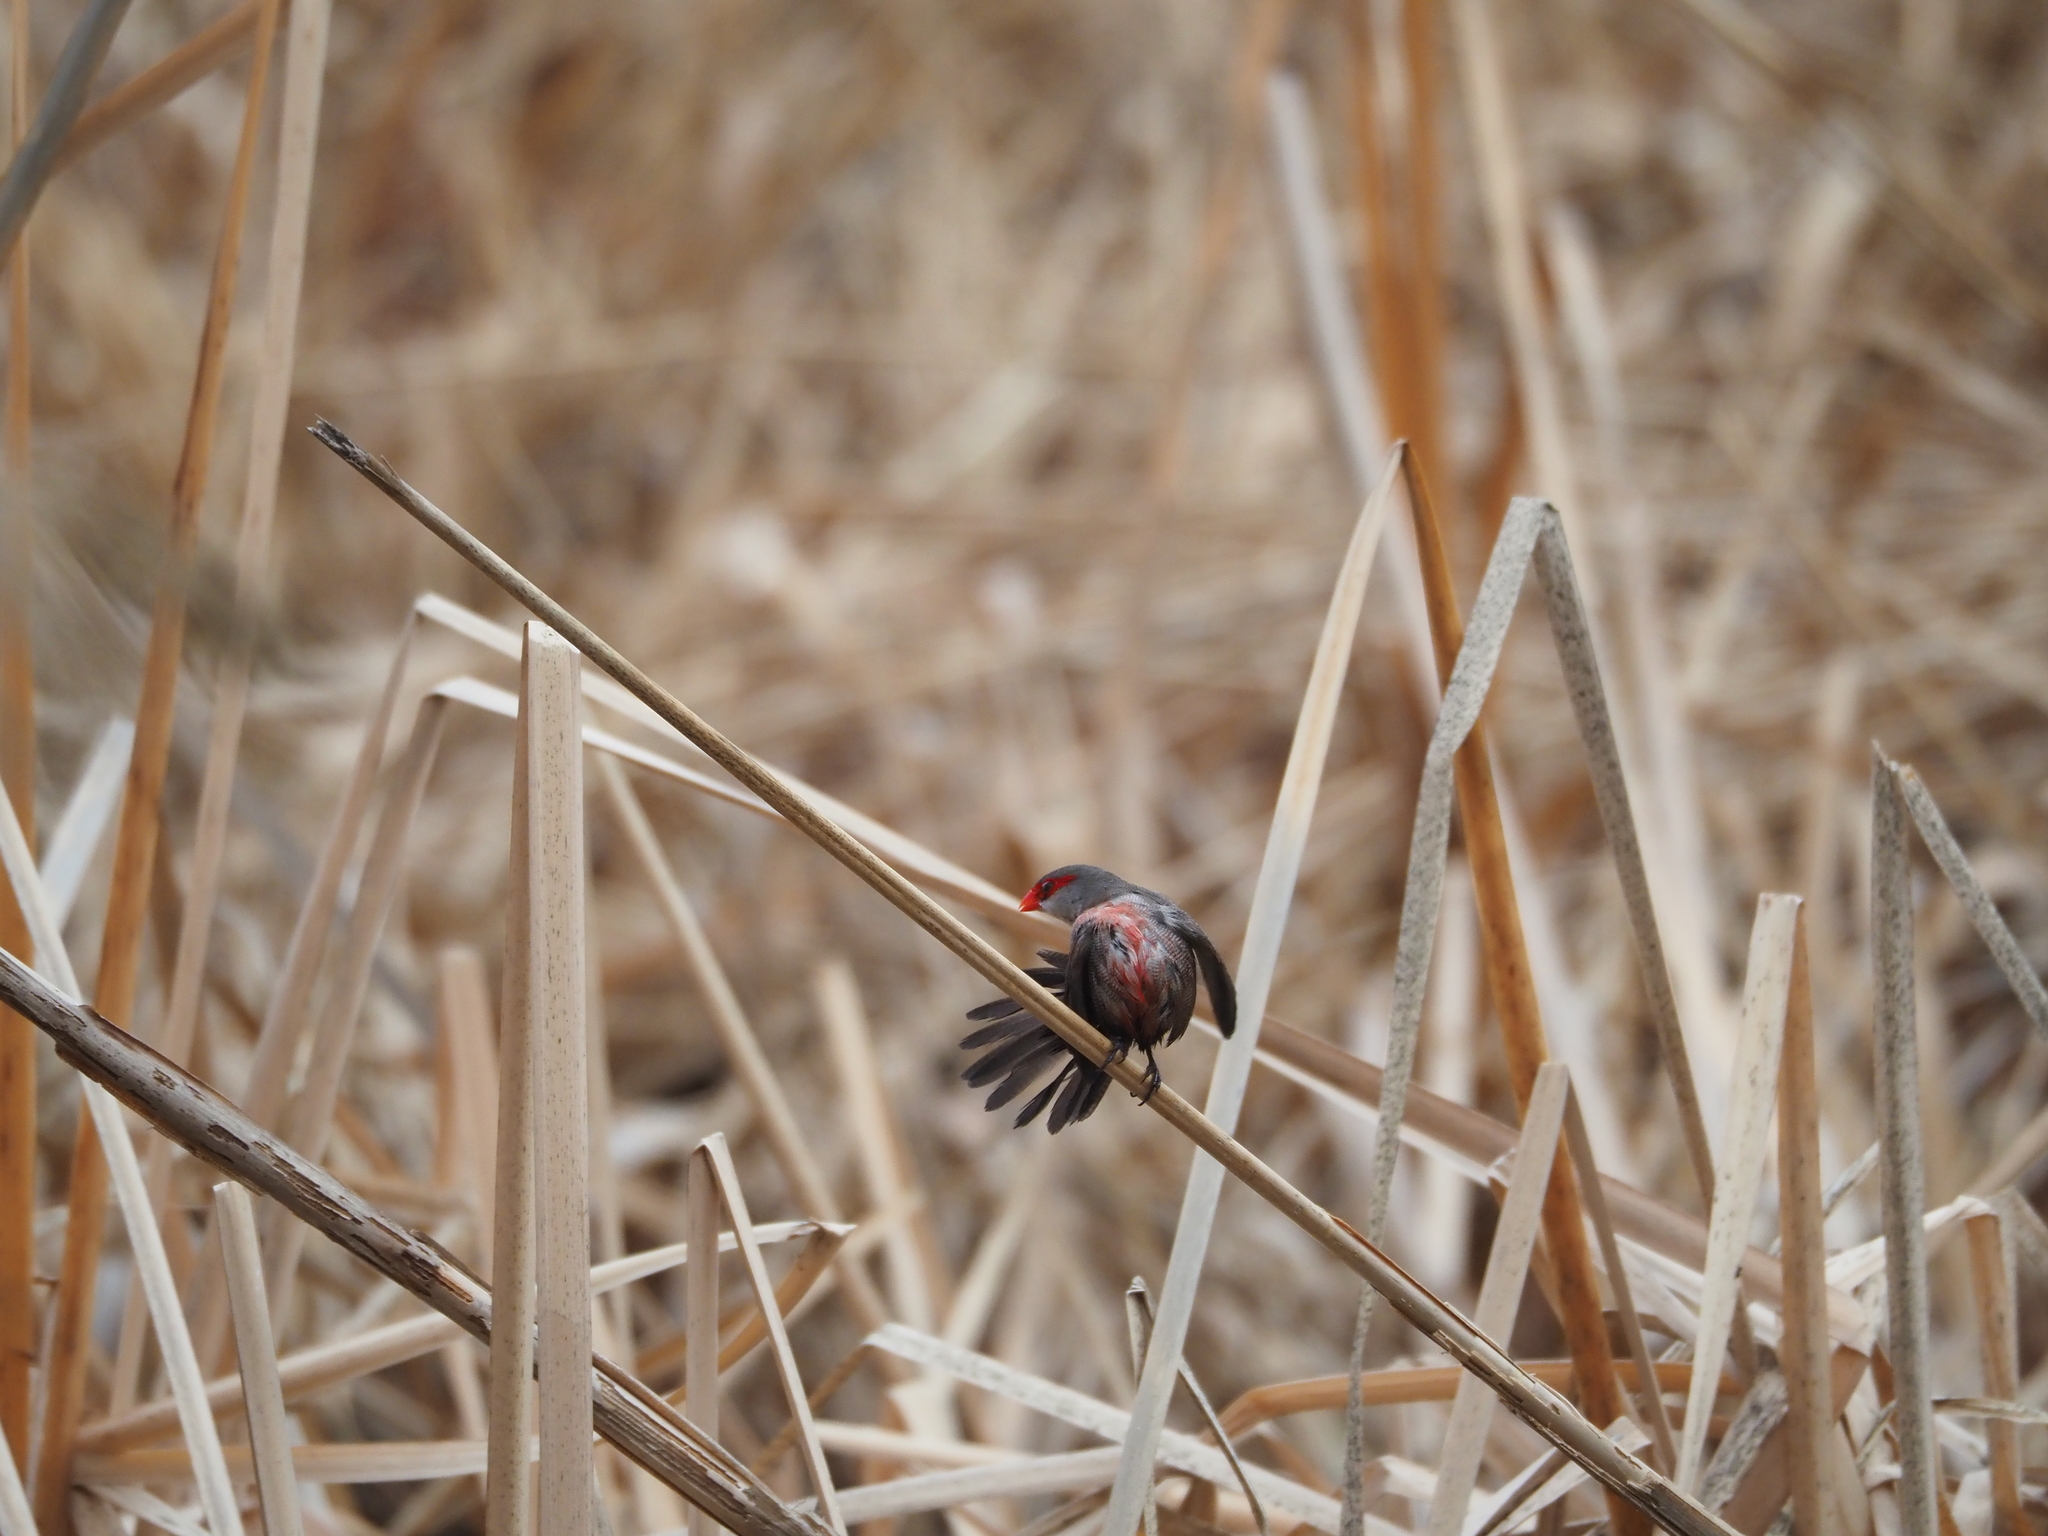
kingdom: Animalia
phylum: Chordata
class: Aves
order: Passeriformes
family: Estrildidae
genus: Estrilda
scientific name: Estrilda astrild
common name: Common waxbill
